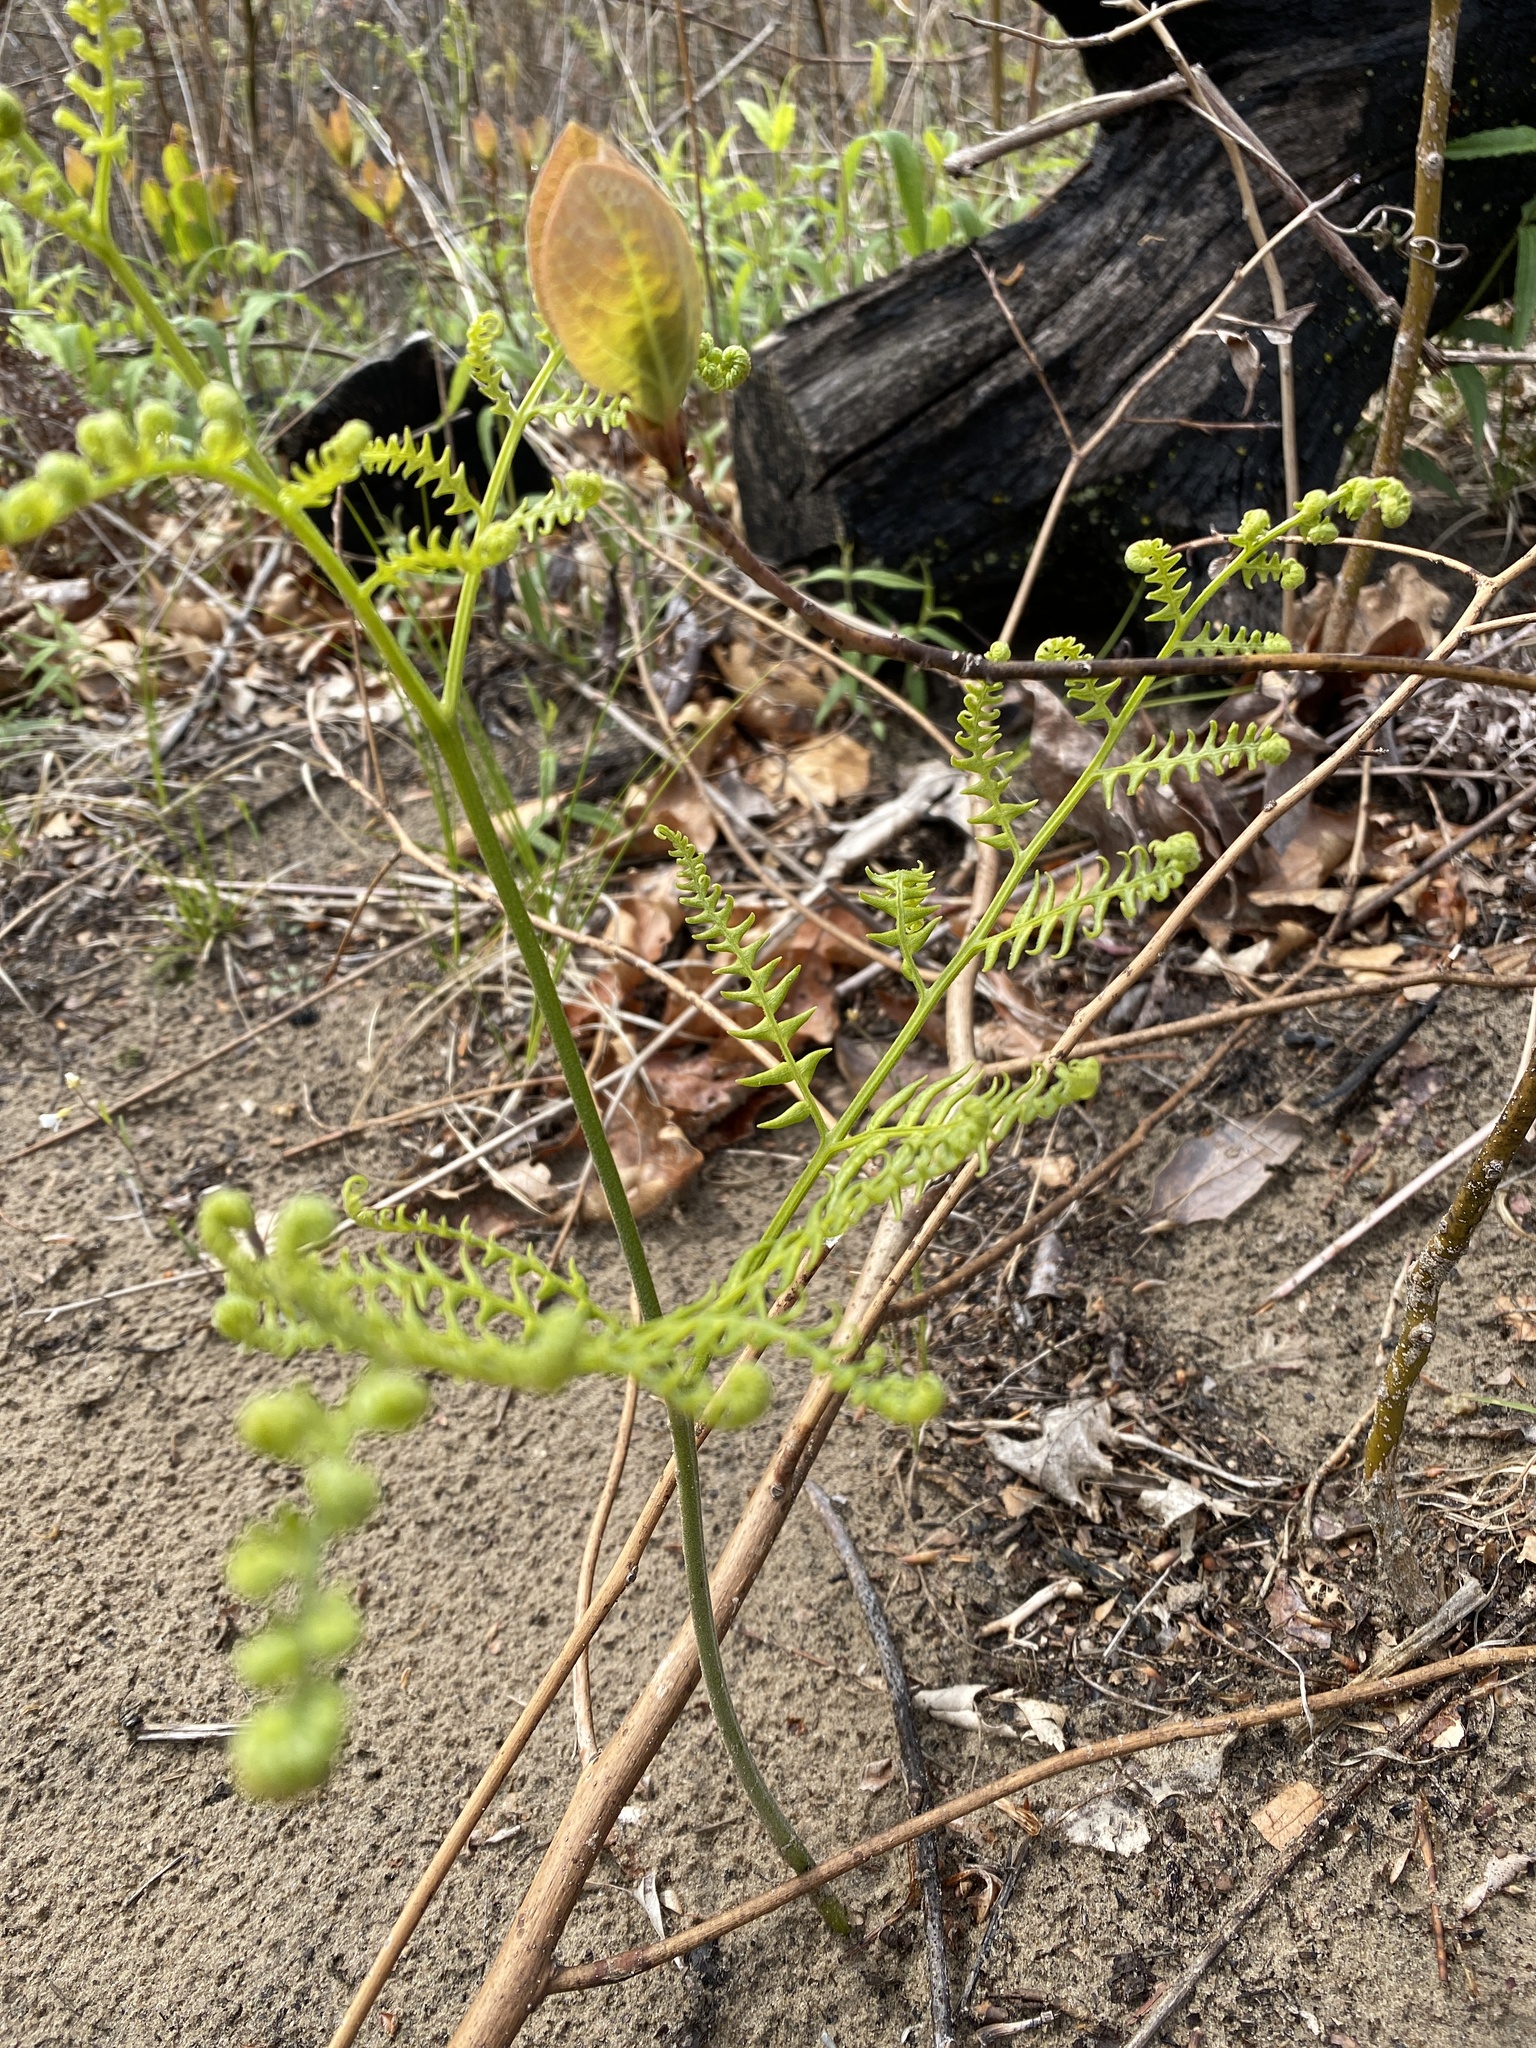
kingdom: Plantae
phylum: Tracheophyta
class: Polypodiopsida
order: Polypodiales
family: Dennstaedtiaceae
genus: Pteridium
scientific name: Pteridium aquilinum
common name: Bracken
